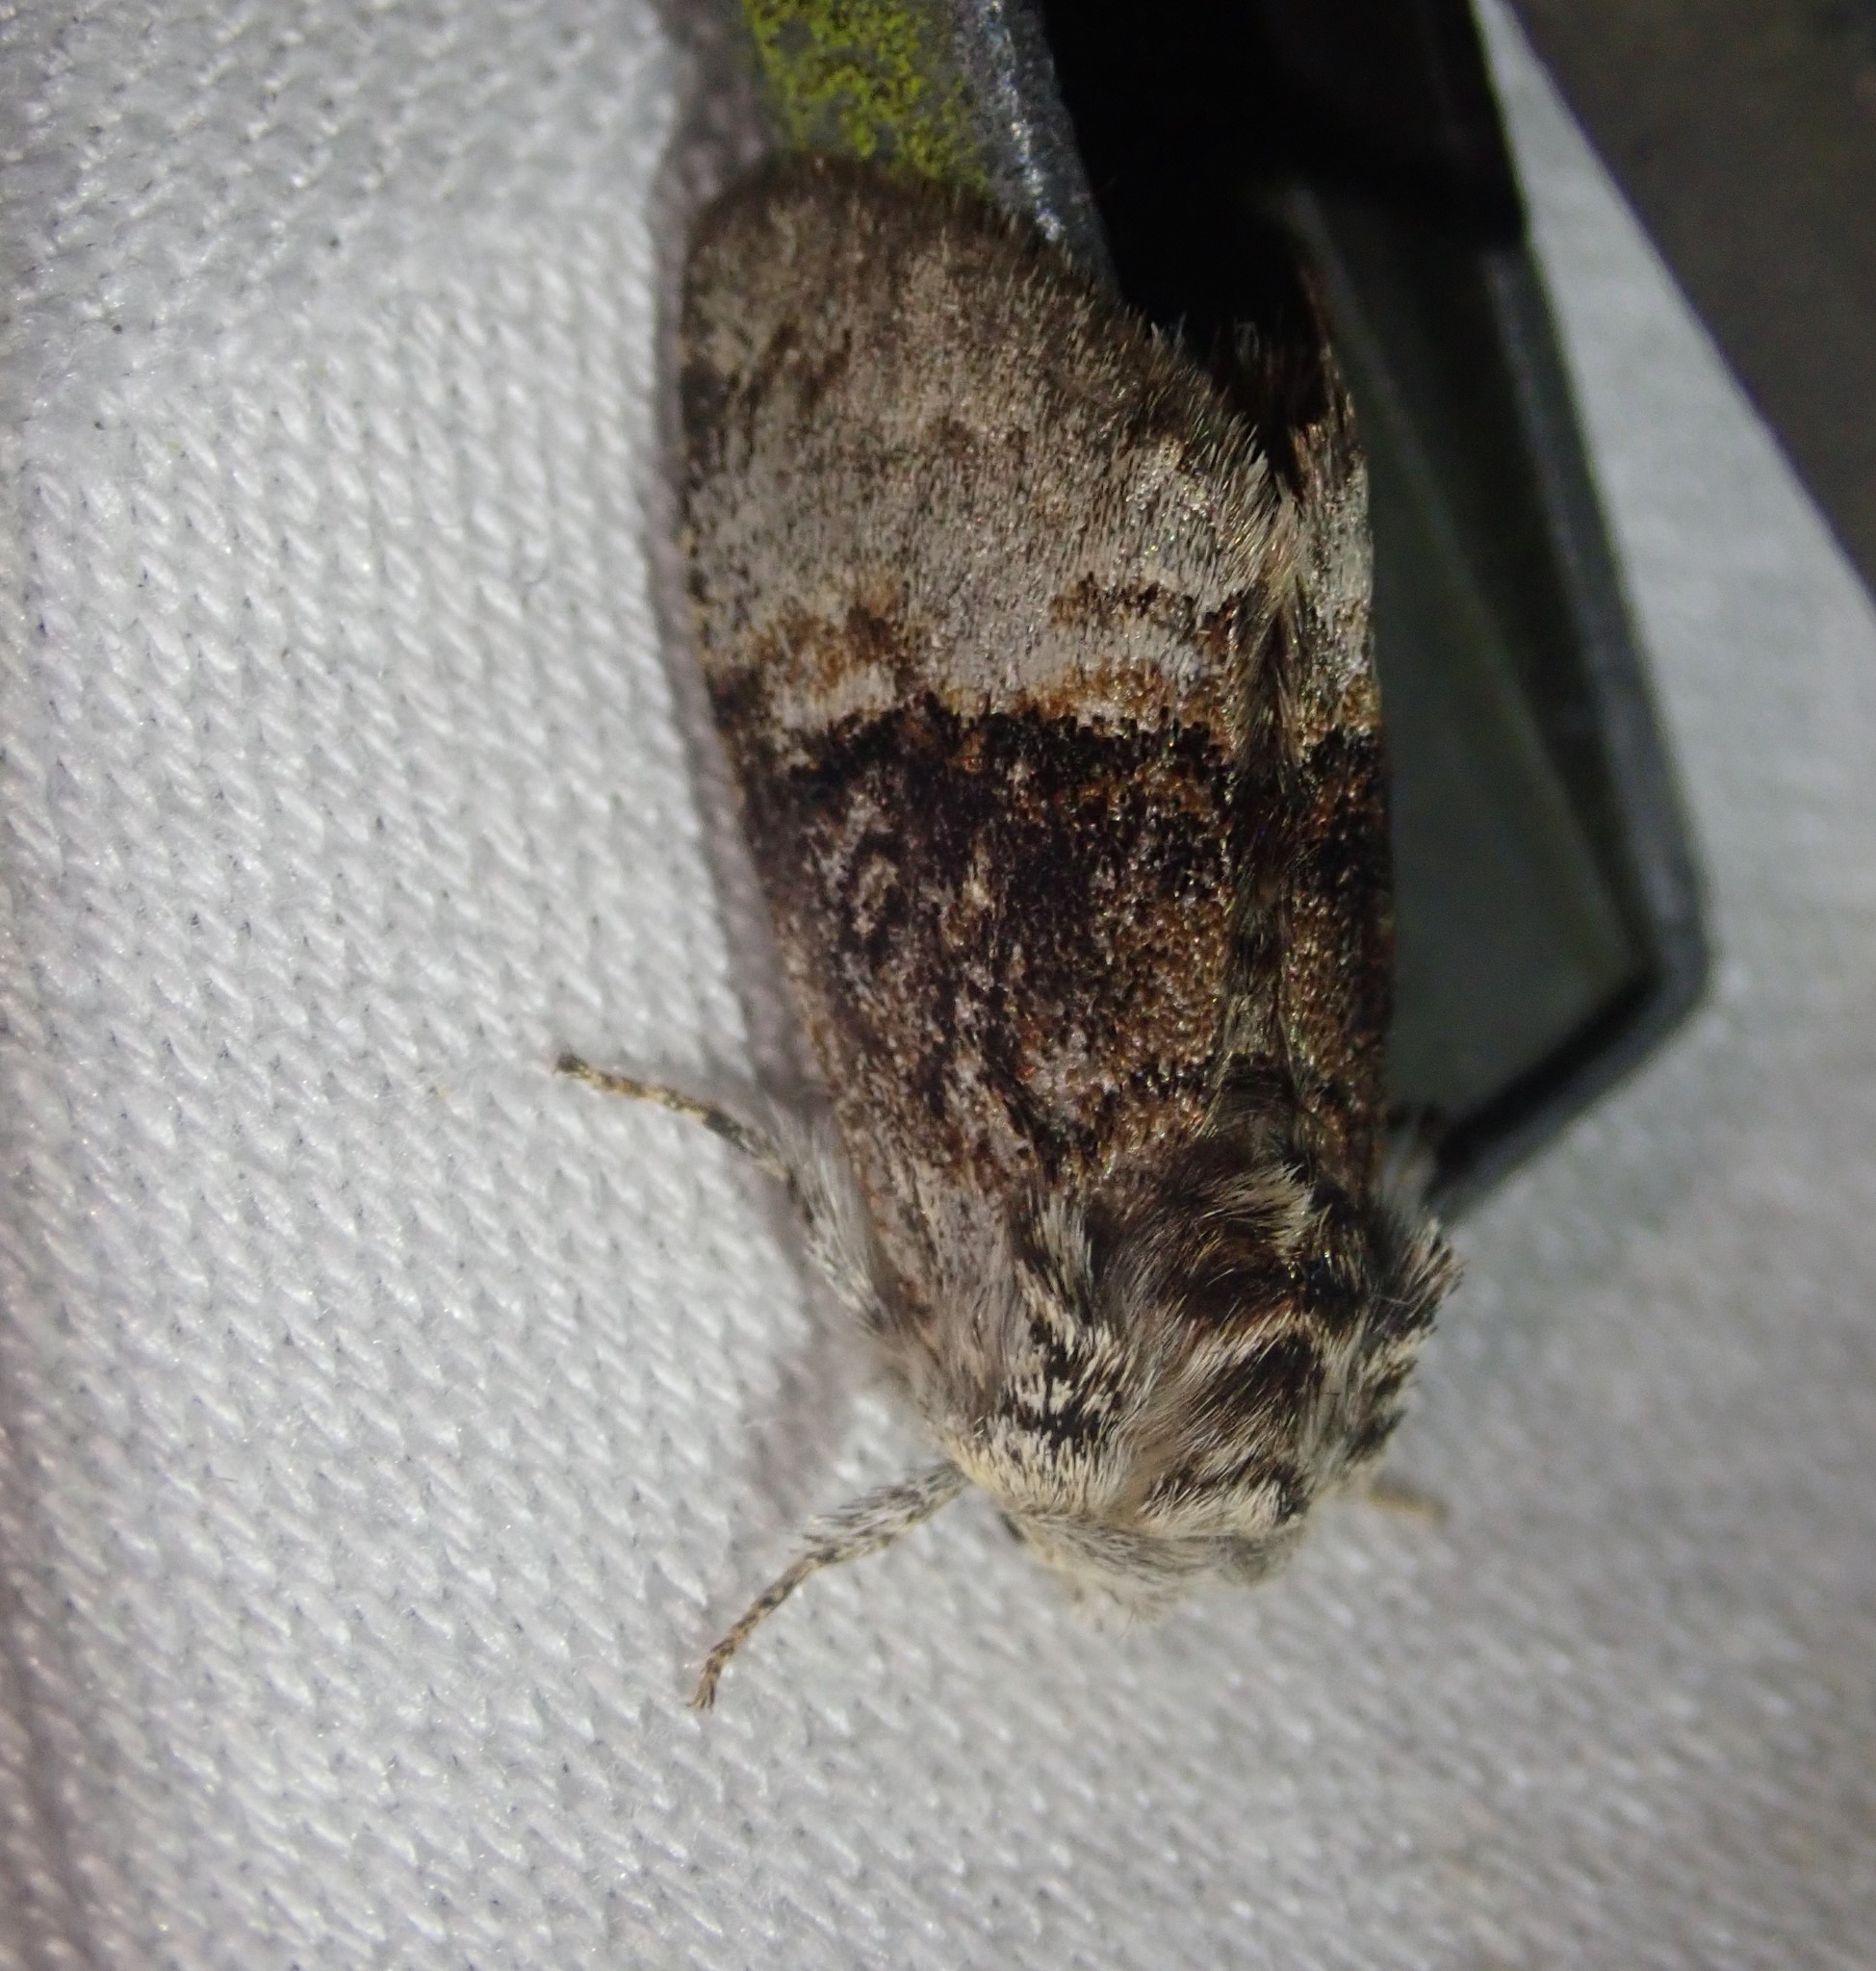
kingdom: Animalia
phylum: Arthropoda
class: Insecta
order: Lepidoptera
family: Noctuidae
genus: Colocasia
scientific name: Colocasia coryli
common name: Nut-tree tussock
